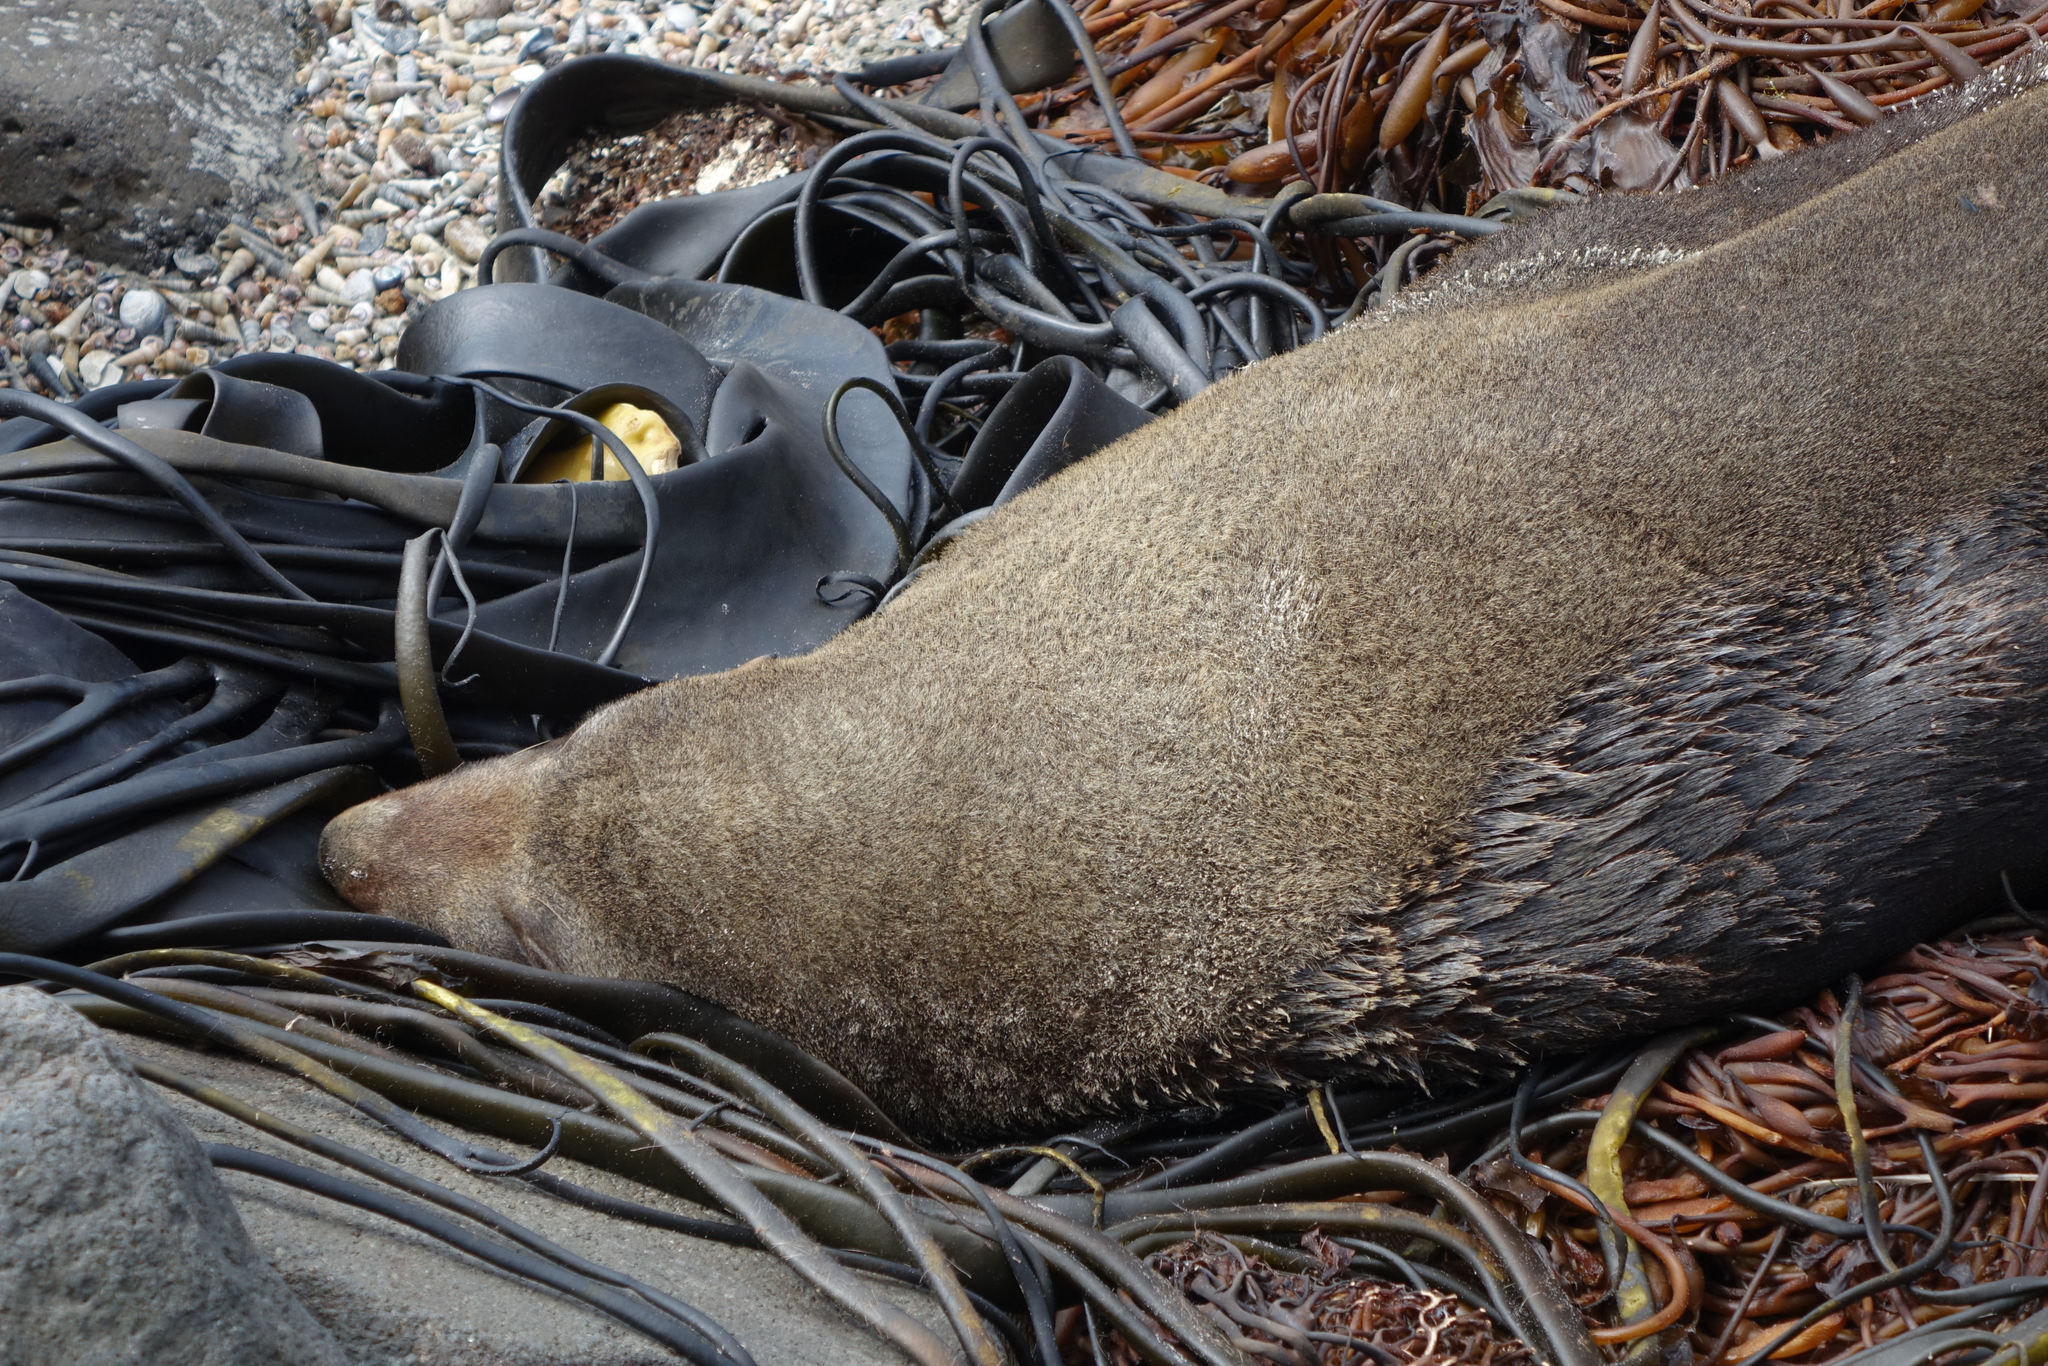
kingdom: Animalia
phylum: Chordata
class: Mammalia
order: Carnivora
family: Otariidae
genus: Arctocephalus
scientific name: Arctocephalus forsteri
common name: New zealand fur seal
